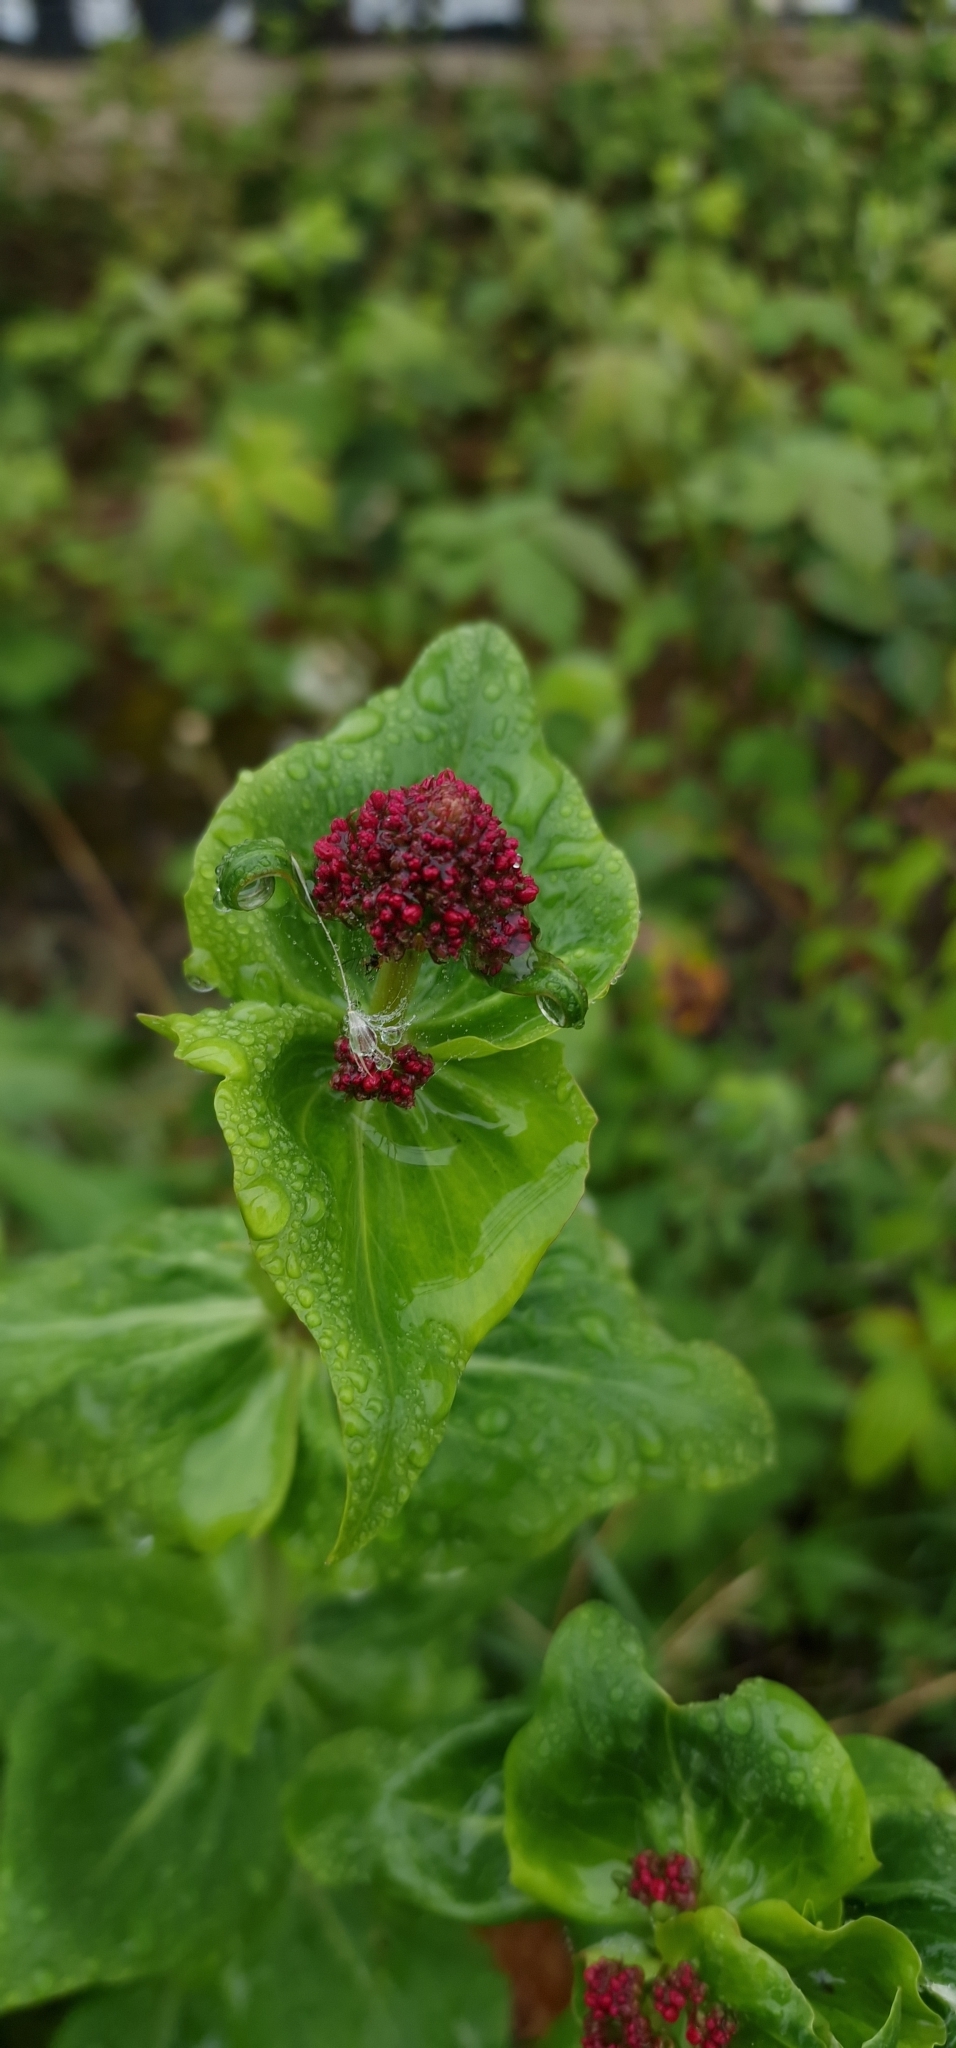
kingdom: Plantae
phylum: Tracheophyta
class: Magnoliopsida
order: Dipsacales
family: Caprifoliaceae
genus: Centranthus
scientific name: Centranthus ruber
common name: Red valerian
